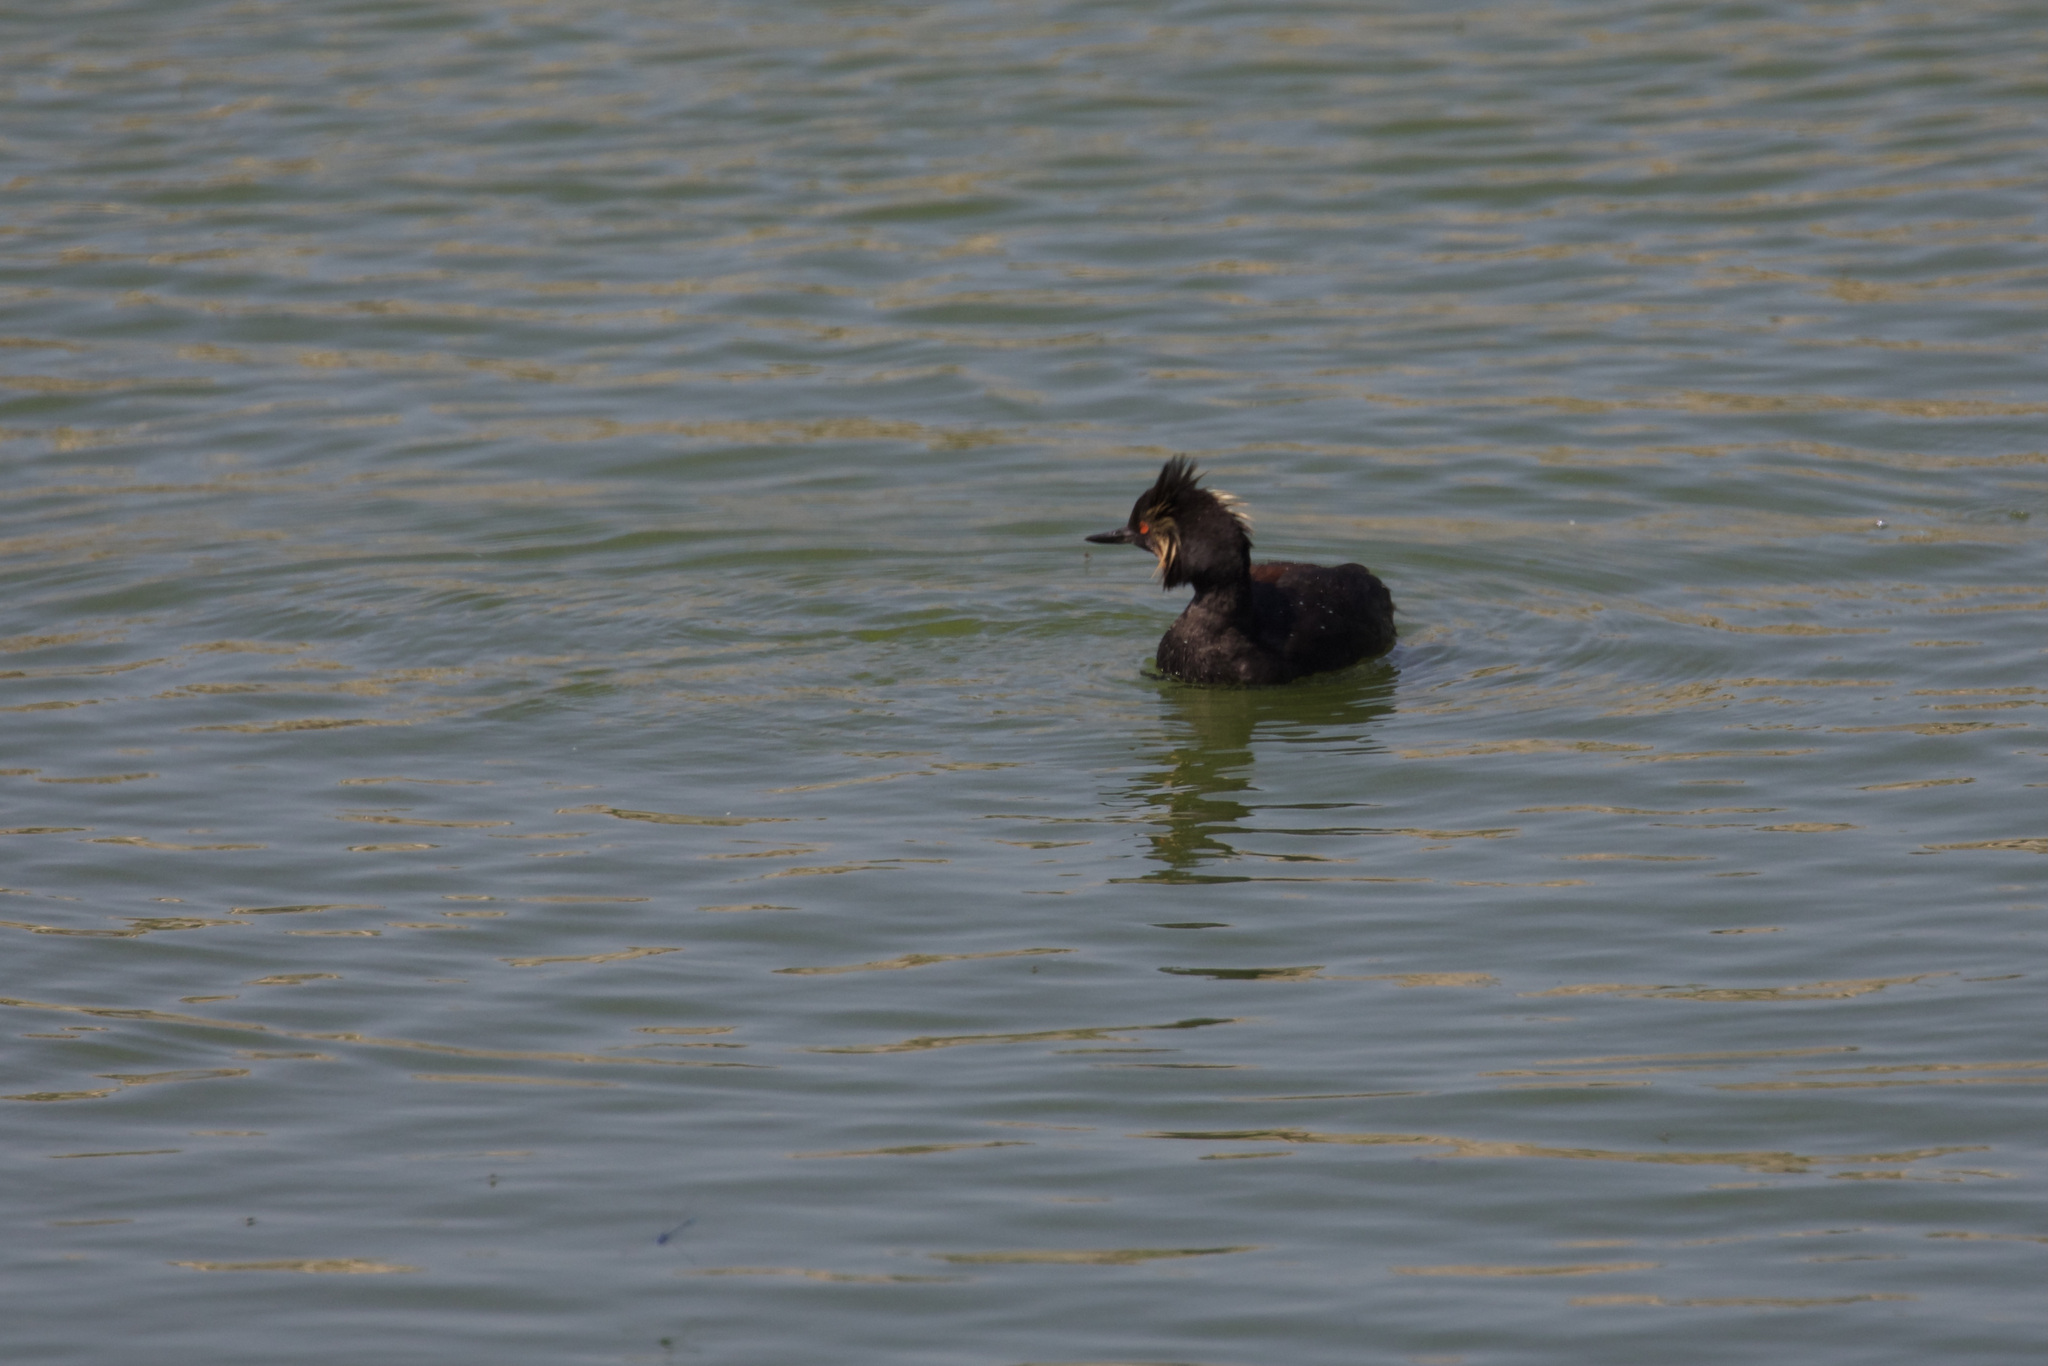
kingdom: Animalia
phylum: Chordata
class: Aves
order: Podicipediformes
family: Podicipedidae
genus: Podiceps
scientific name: Podiceps nigricollis
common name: Black-necked grebe
